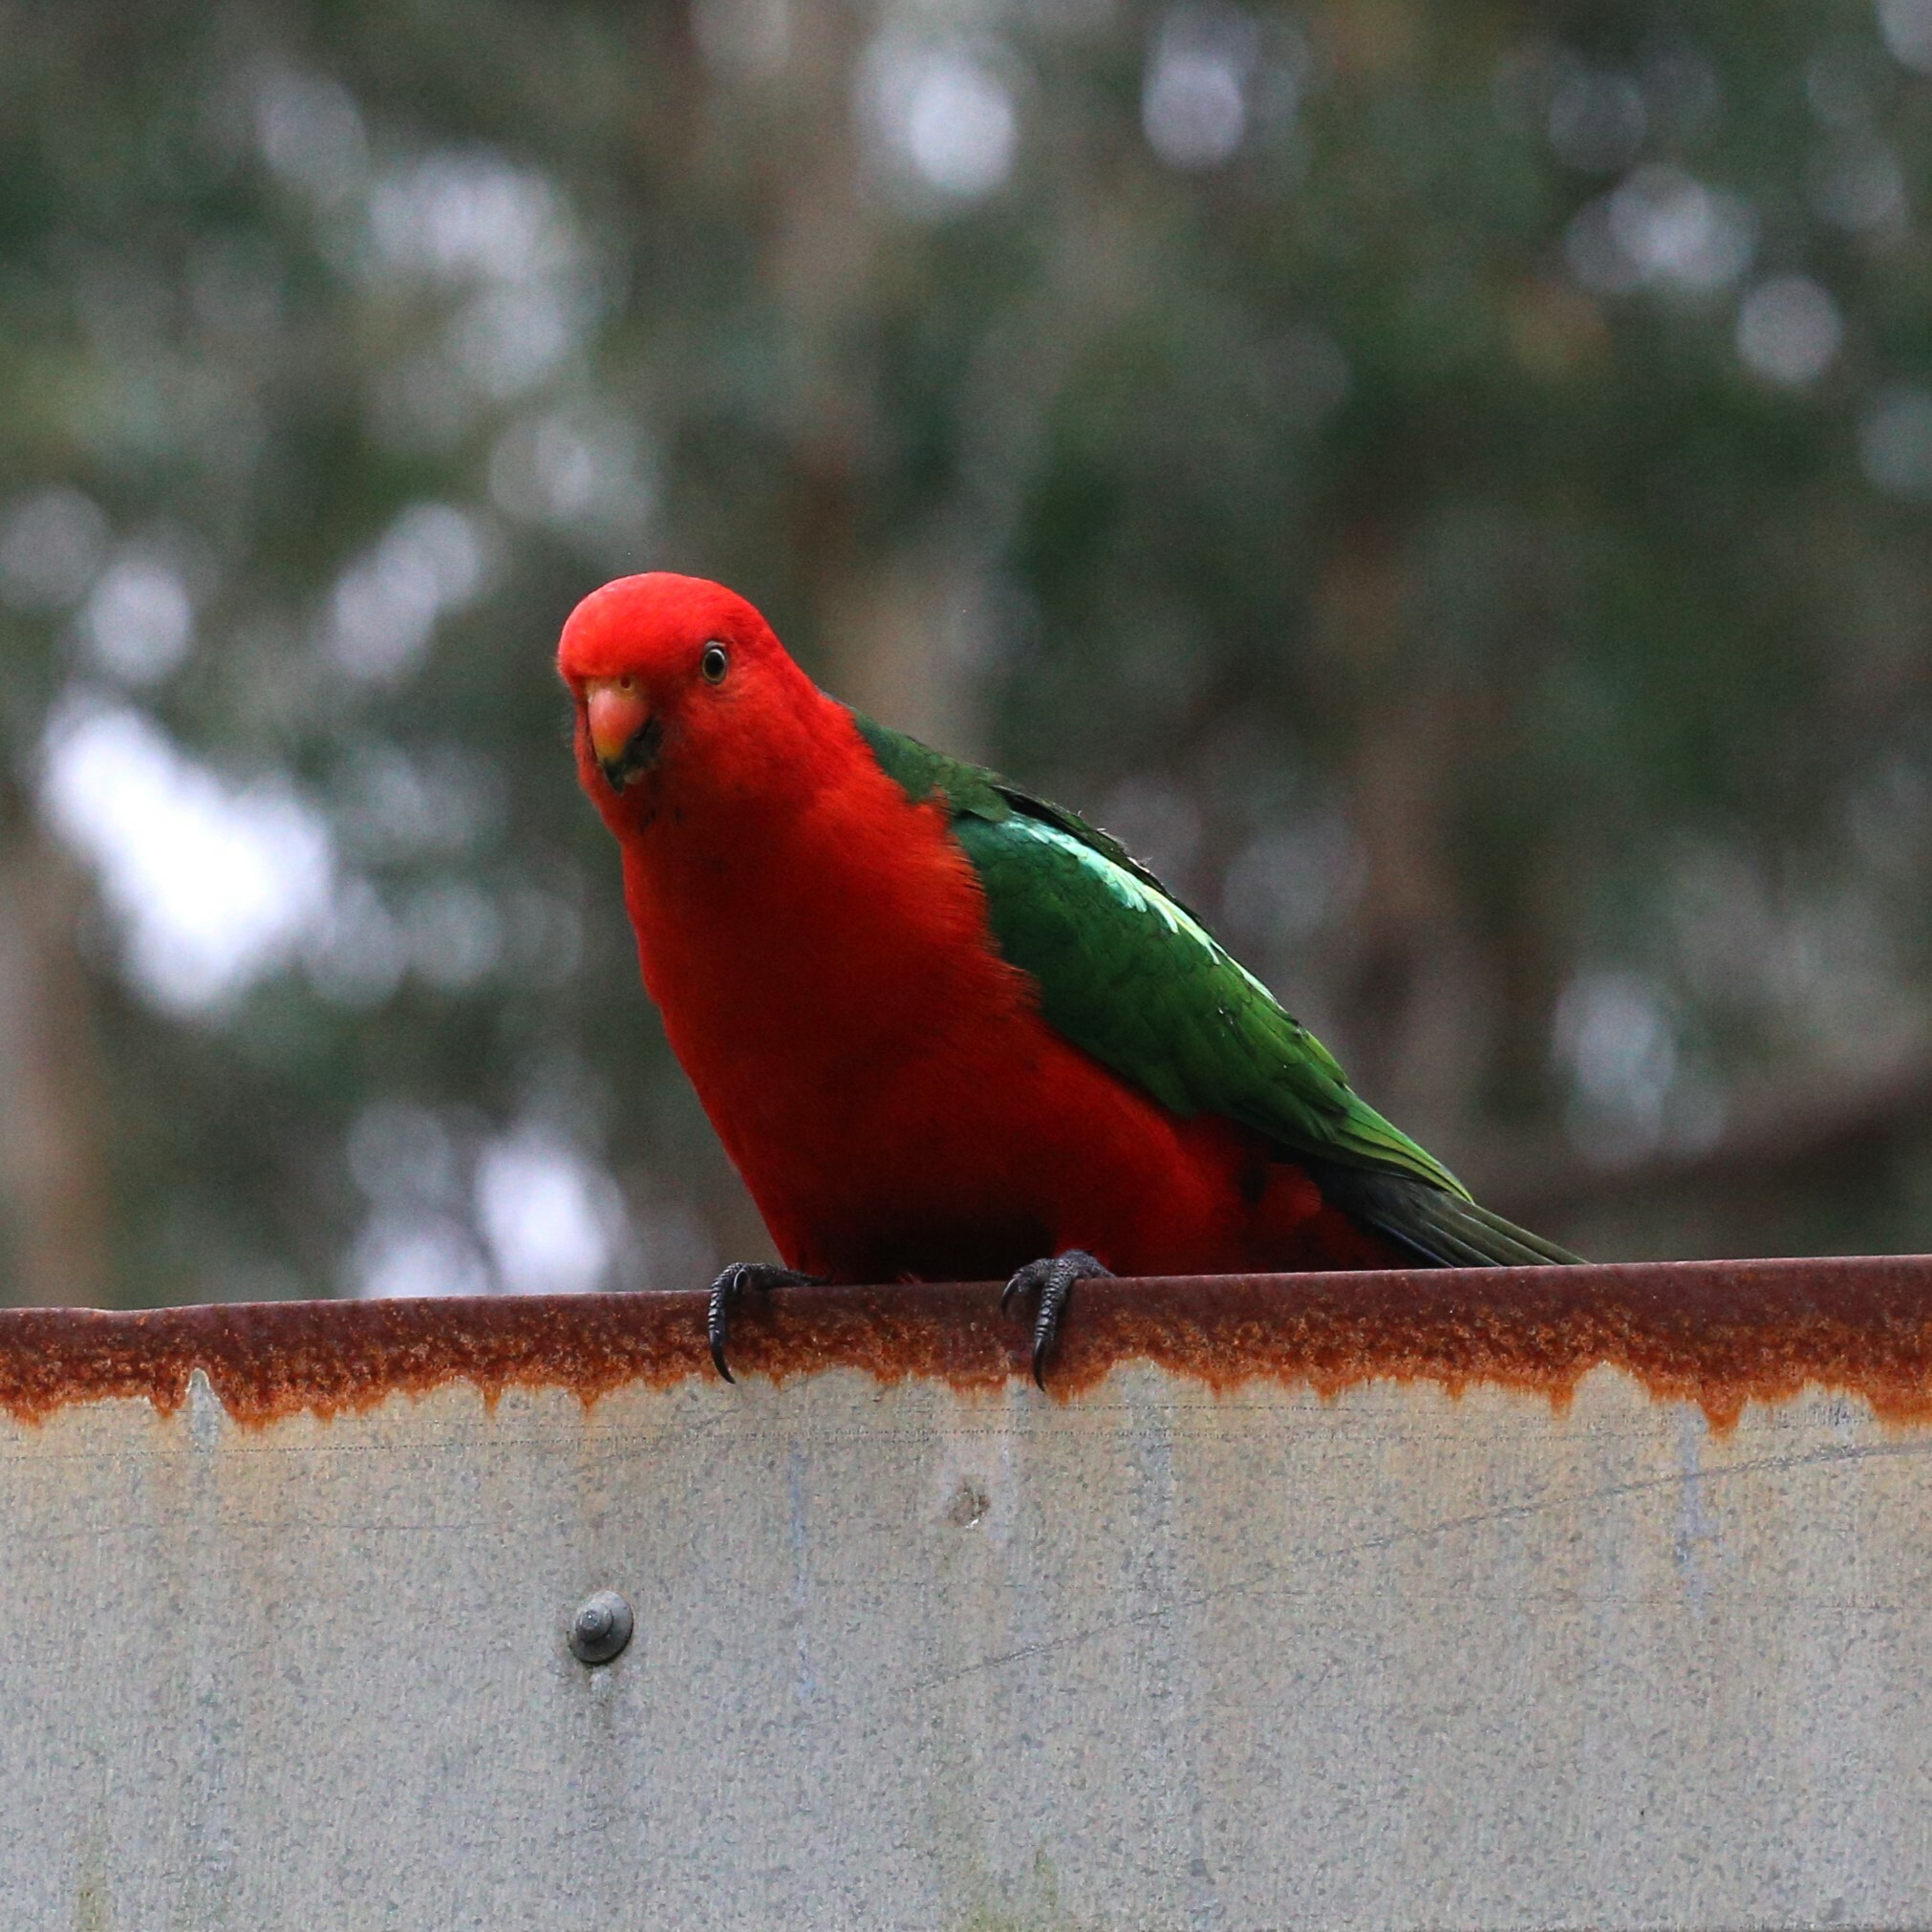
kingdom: Animalia
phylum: Chordata
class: Aves
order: Psittaciformes
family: Psittacidae
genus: Alisterus
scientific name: Alisterus scapularis
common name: Australian king parrot
